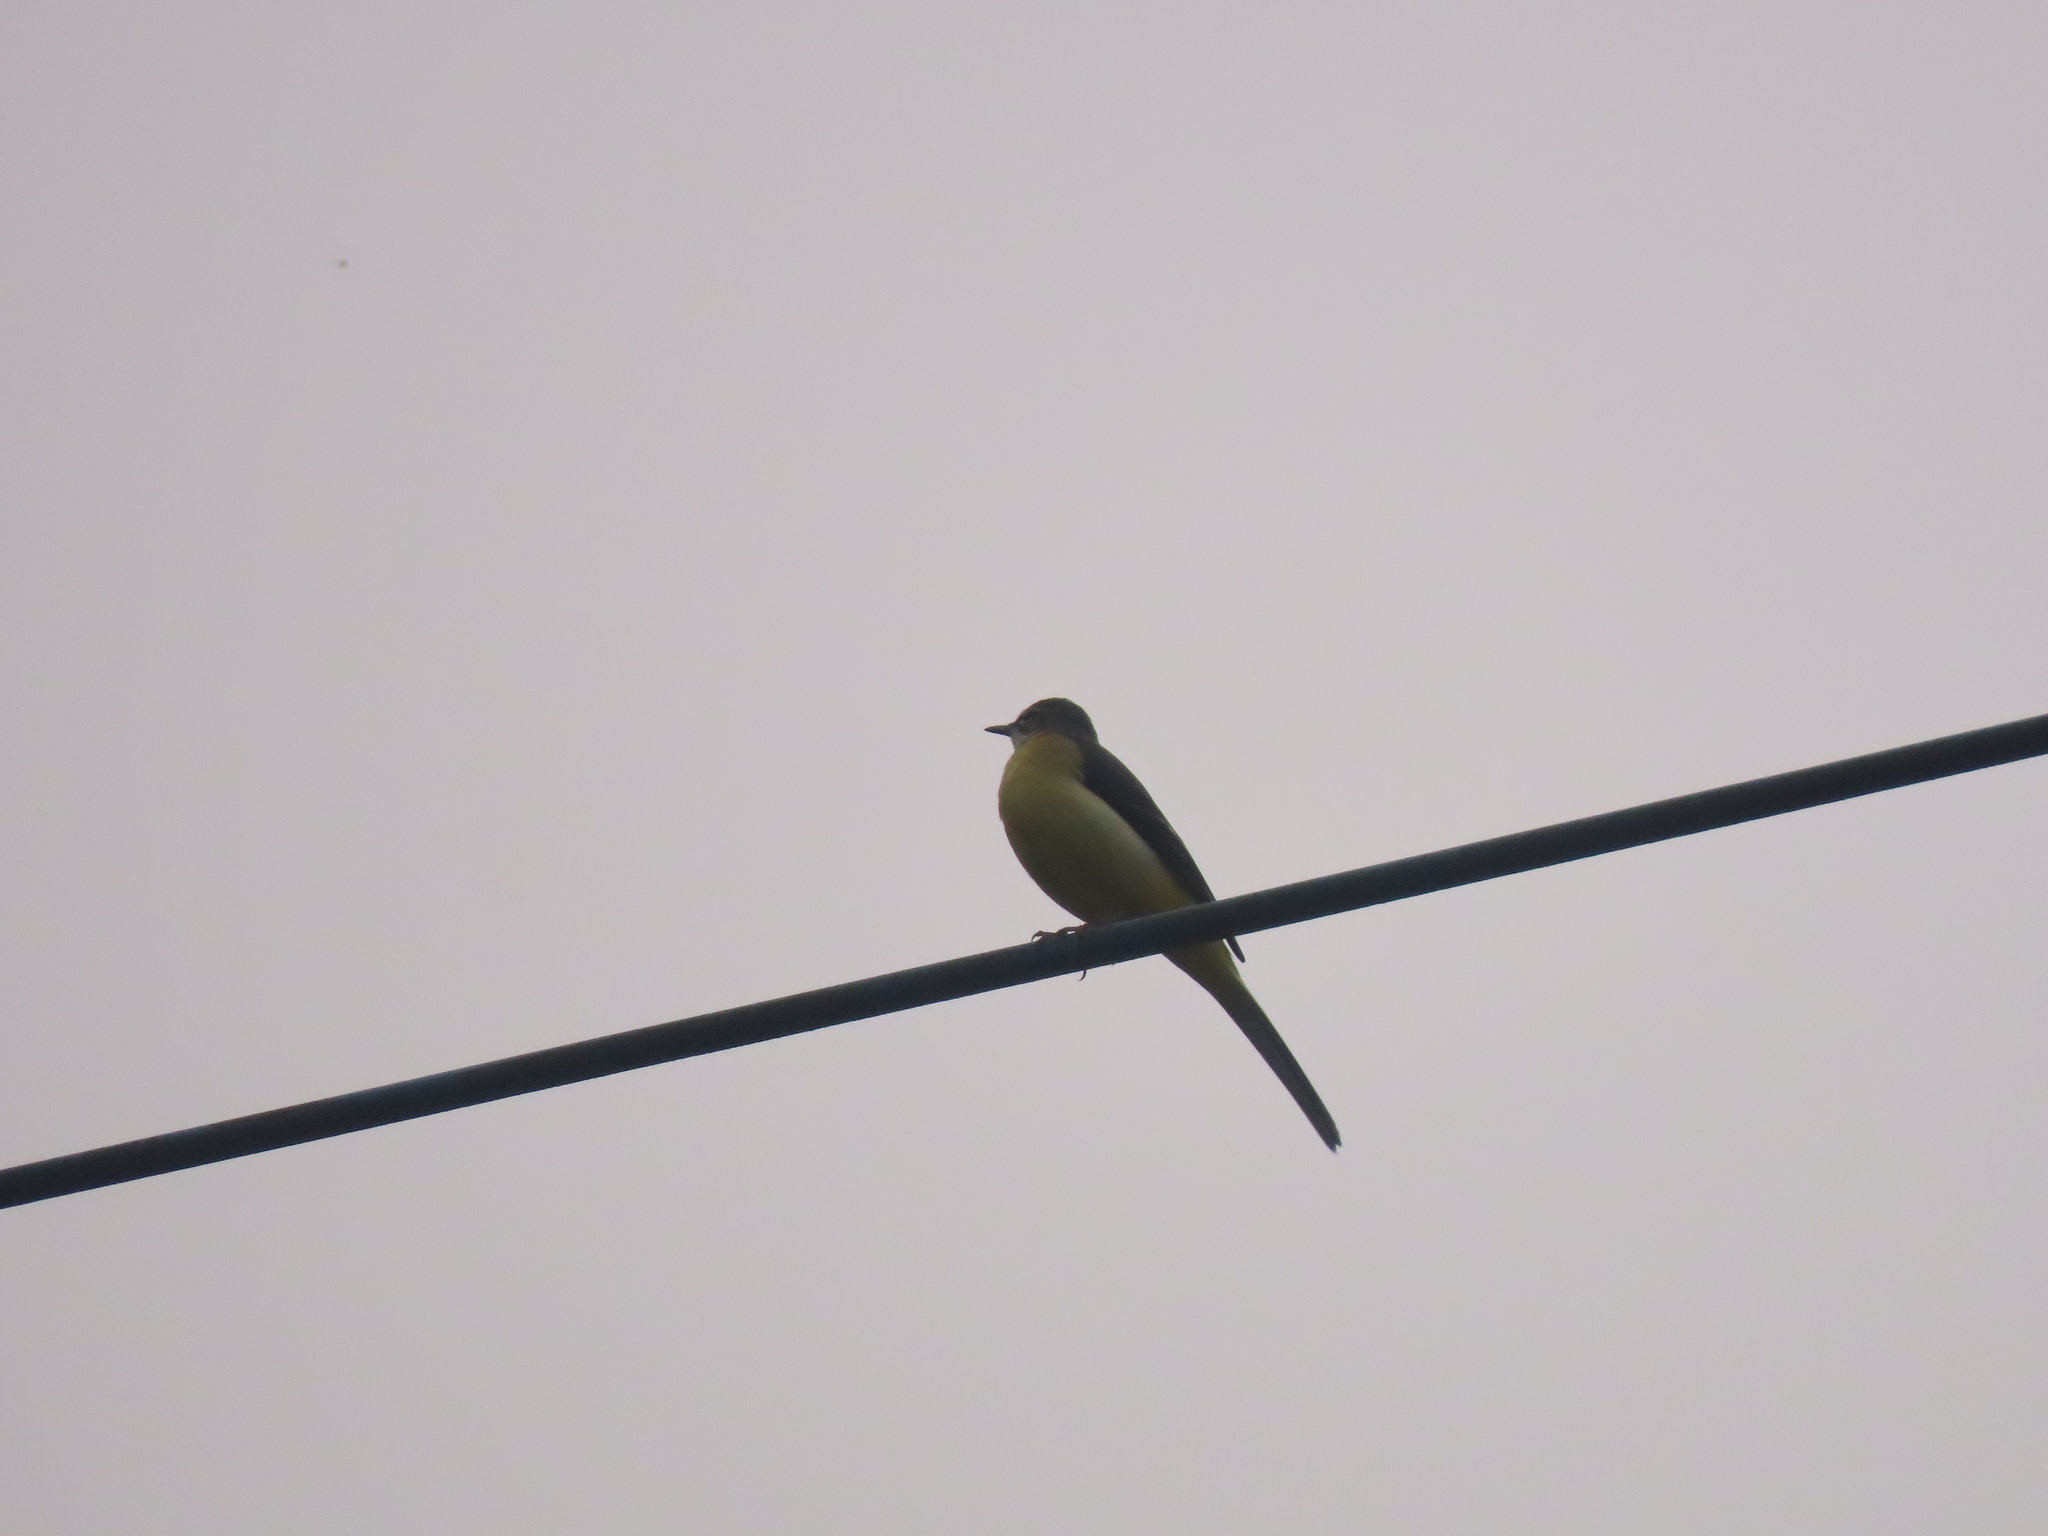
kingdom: Animalia
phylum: Chordata
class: Aves
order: Passeriformes
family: Motacillidae
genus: Motacilla
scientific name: Motacilla cinerea
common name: Grey wagtail
